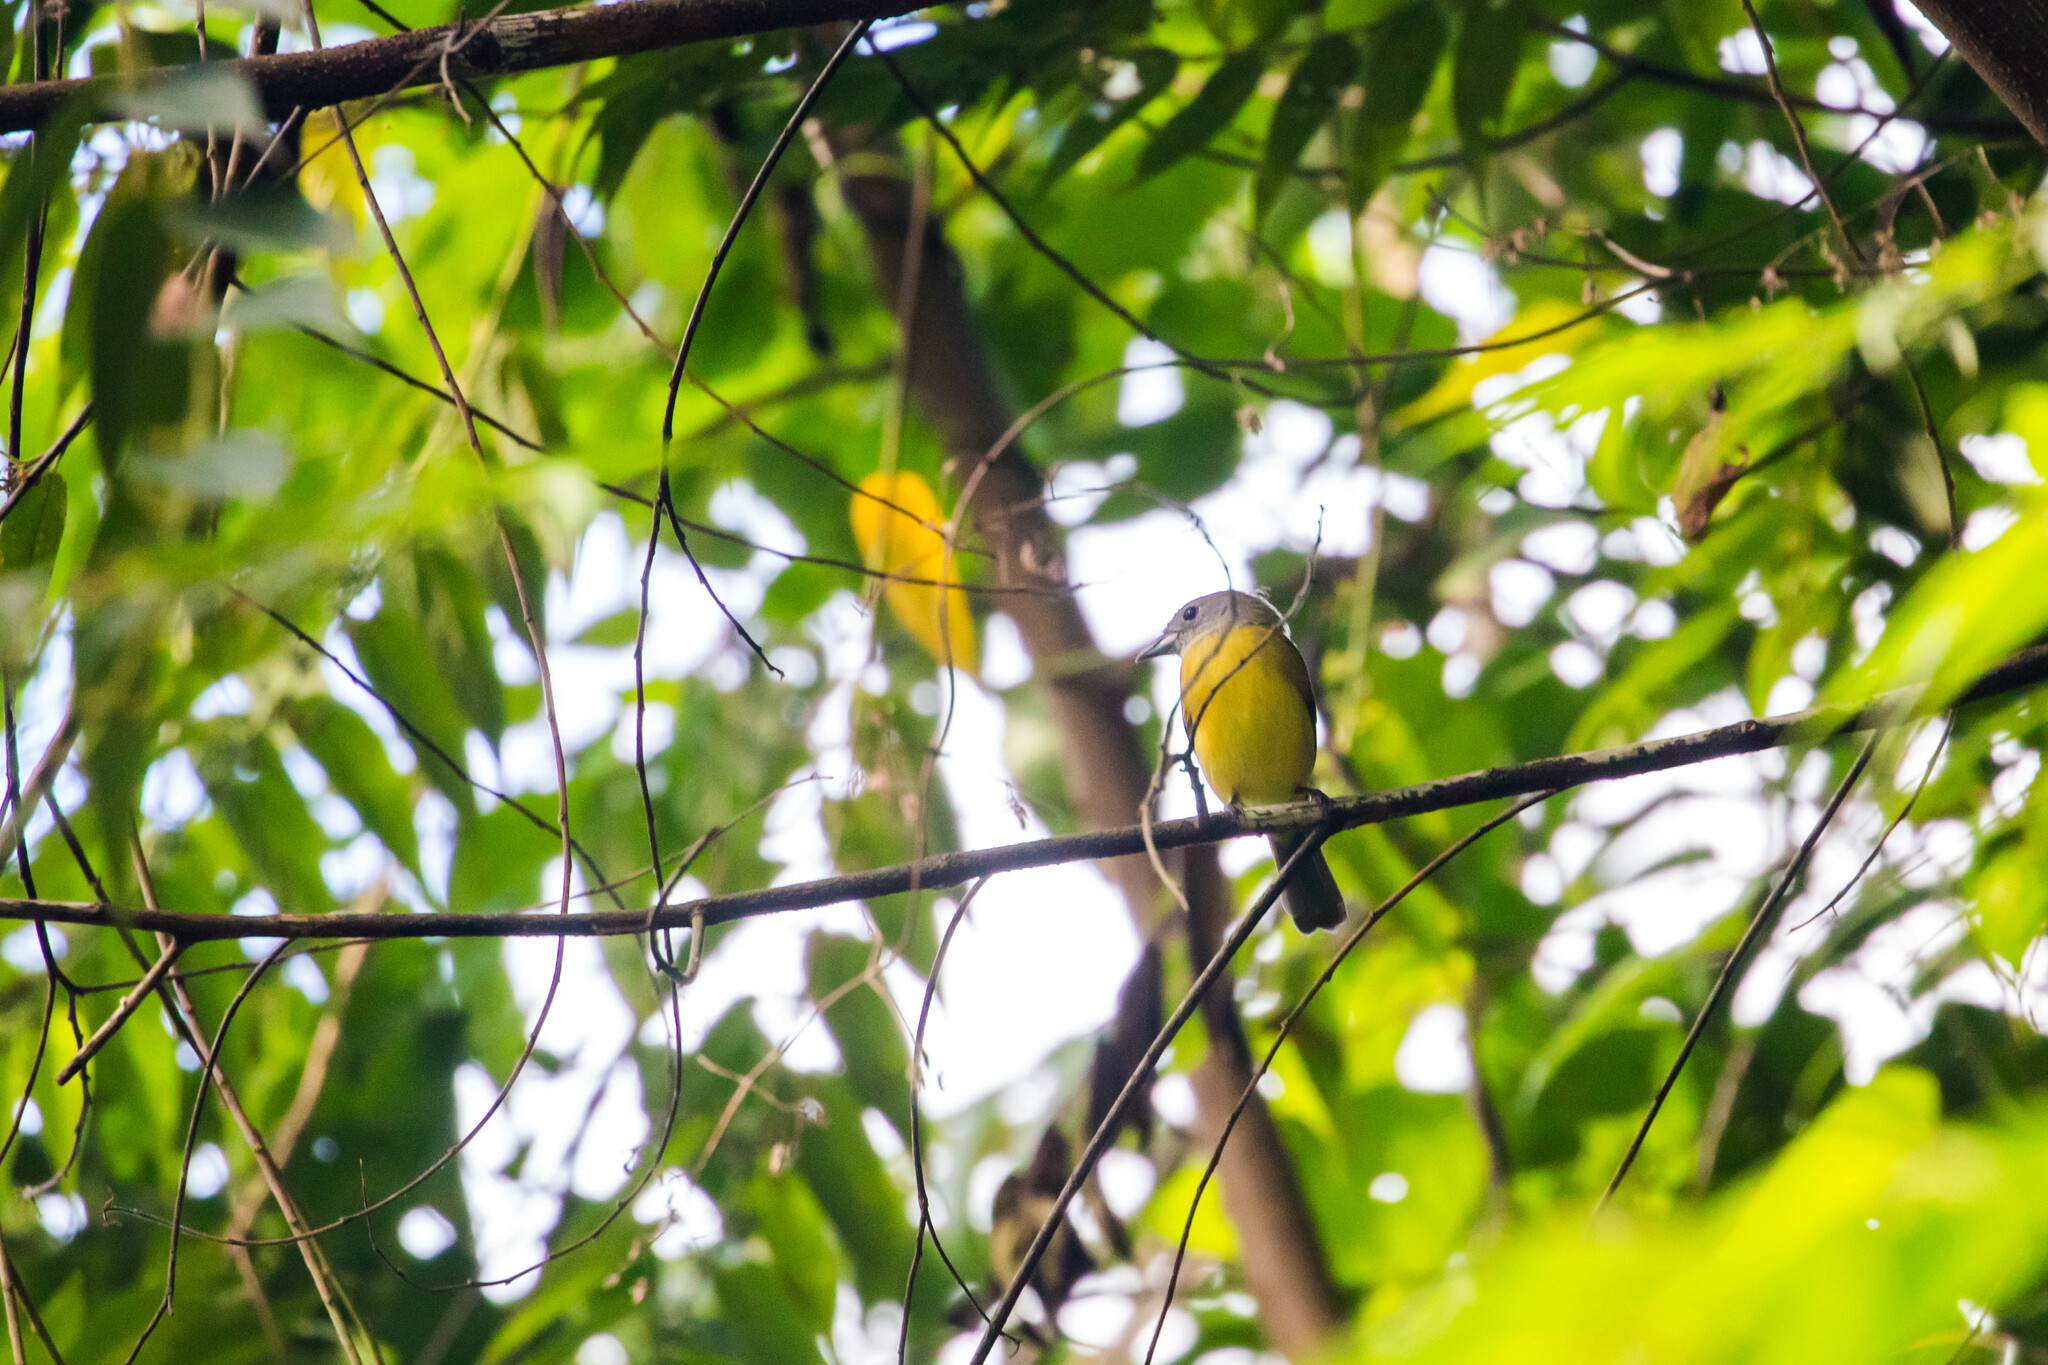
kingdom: Animalia
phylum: Chordata
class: Aves
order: Passeriformes
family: Thraupidae
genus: Loriotus
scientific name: Loriotus luctuosus
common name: White-shouldered tanager
